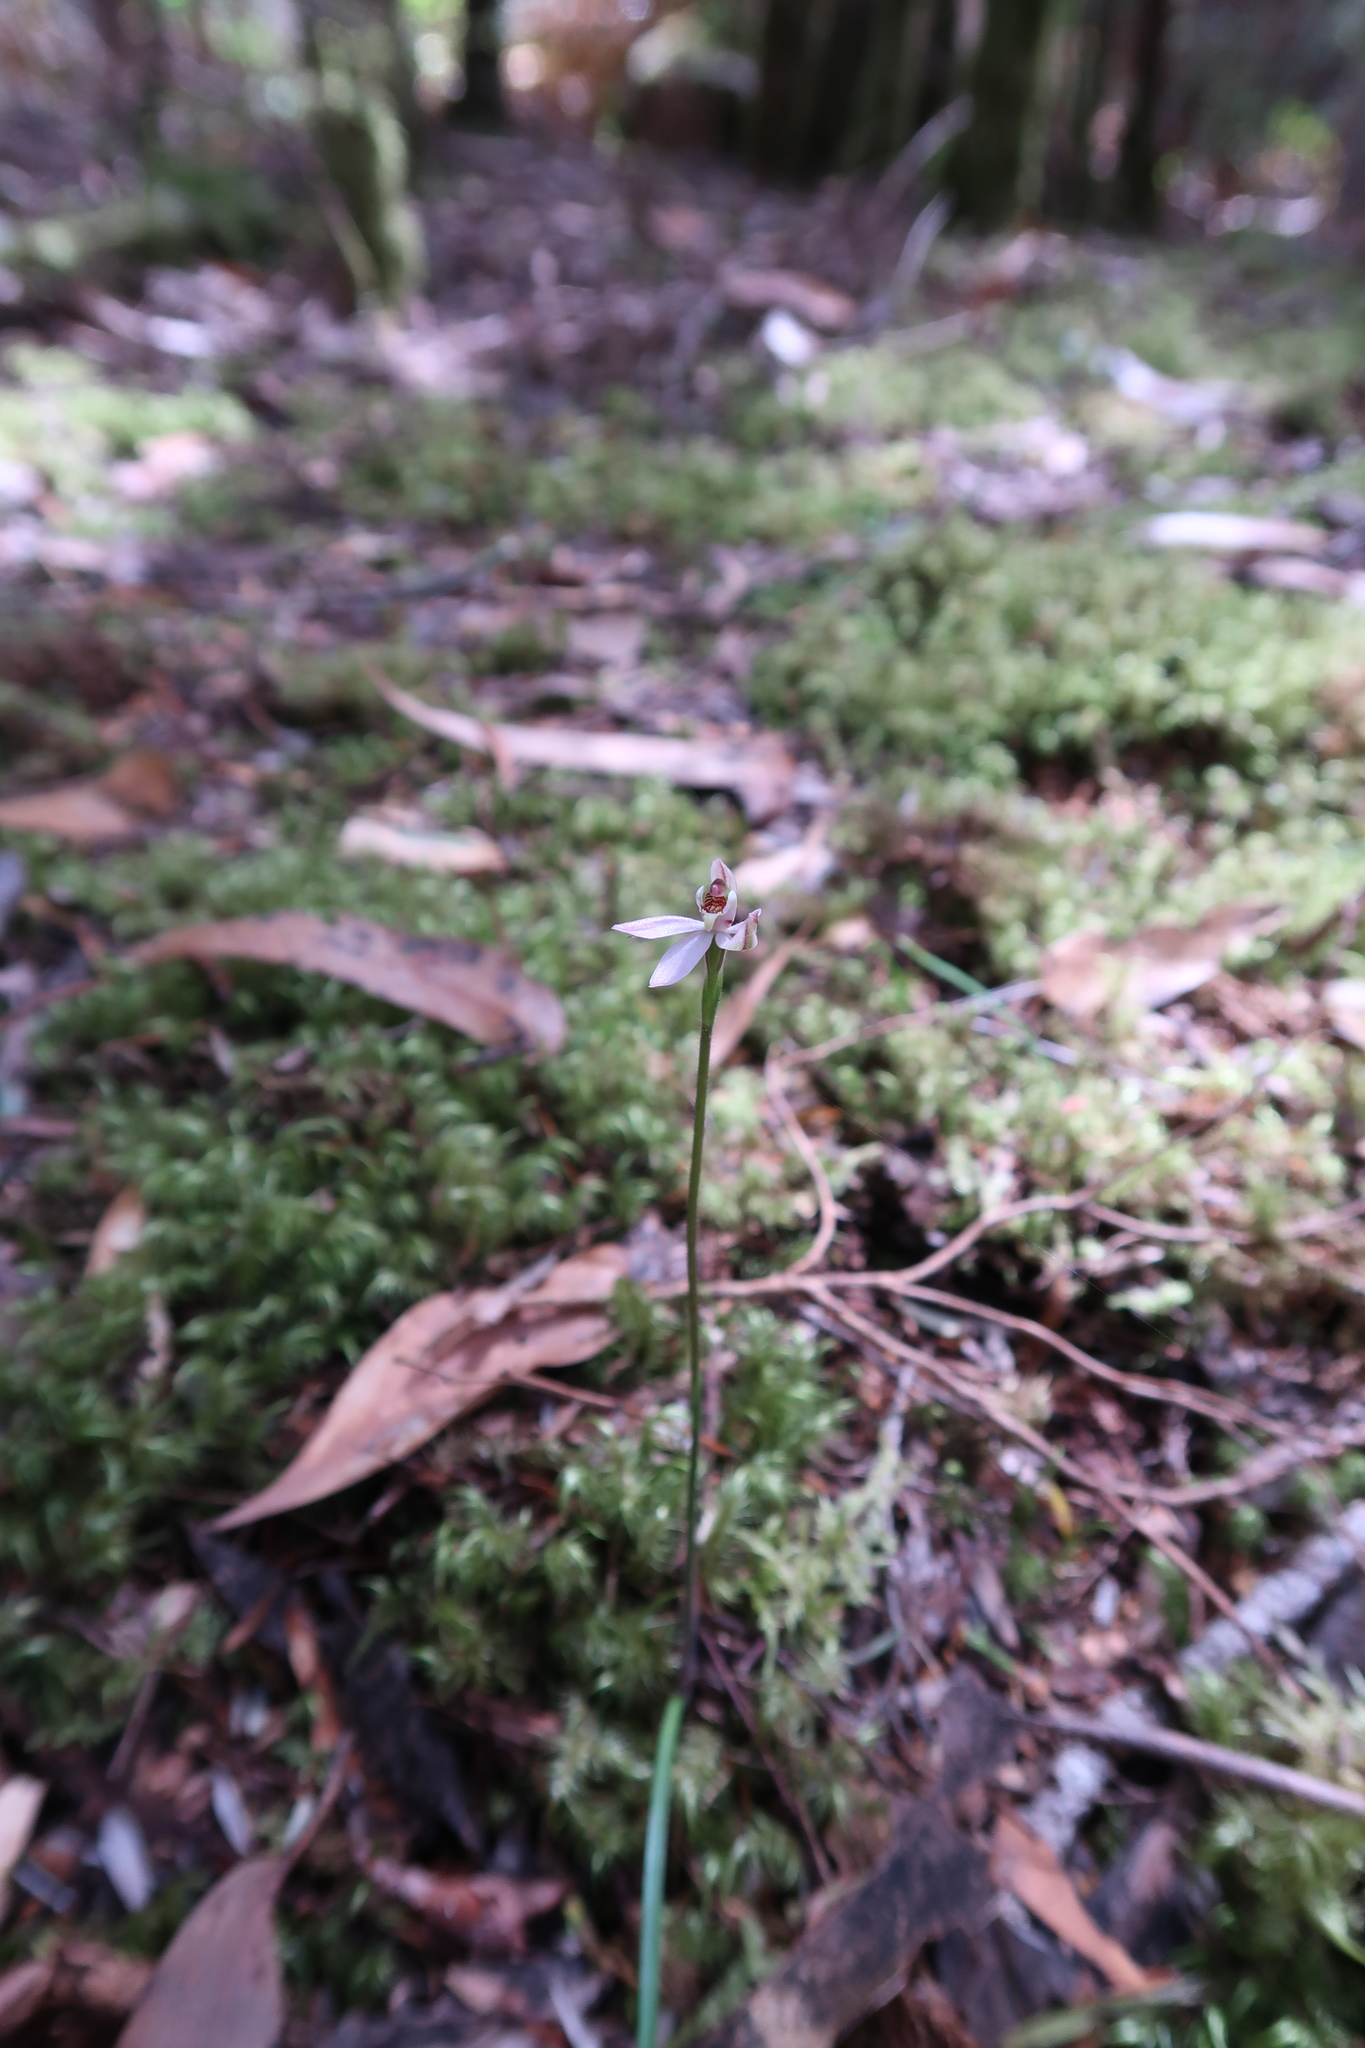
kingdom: Plantae
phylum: Tracheophyta
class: Liliopsida
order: Asparagales
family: Orchidaceae
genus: Caladenia
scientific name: Caladenia mentiens
